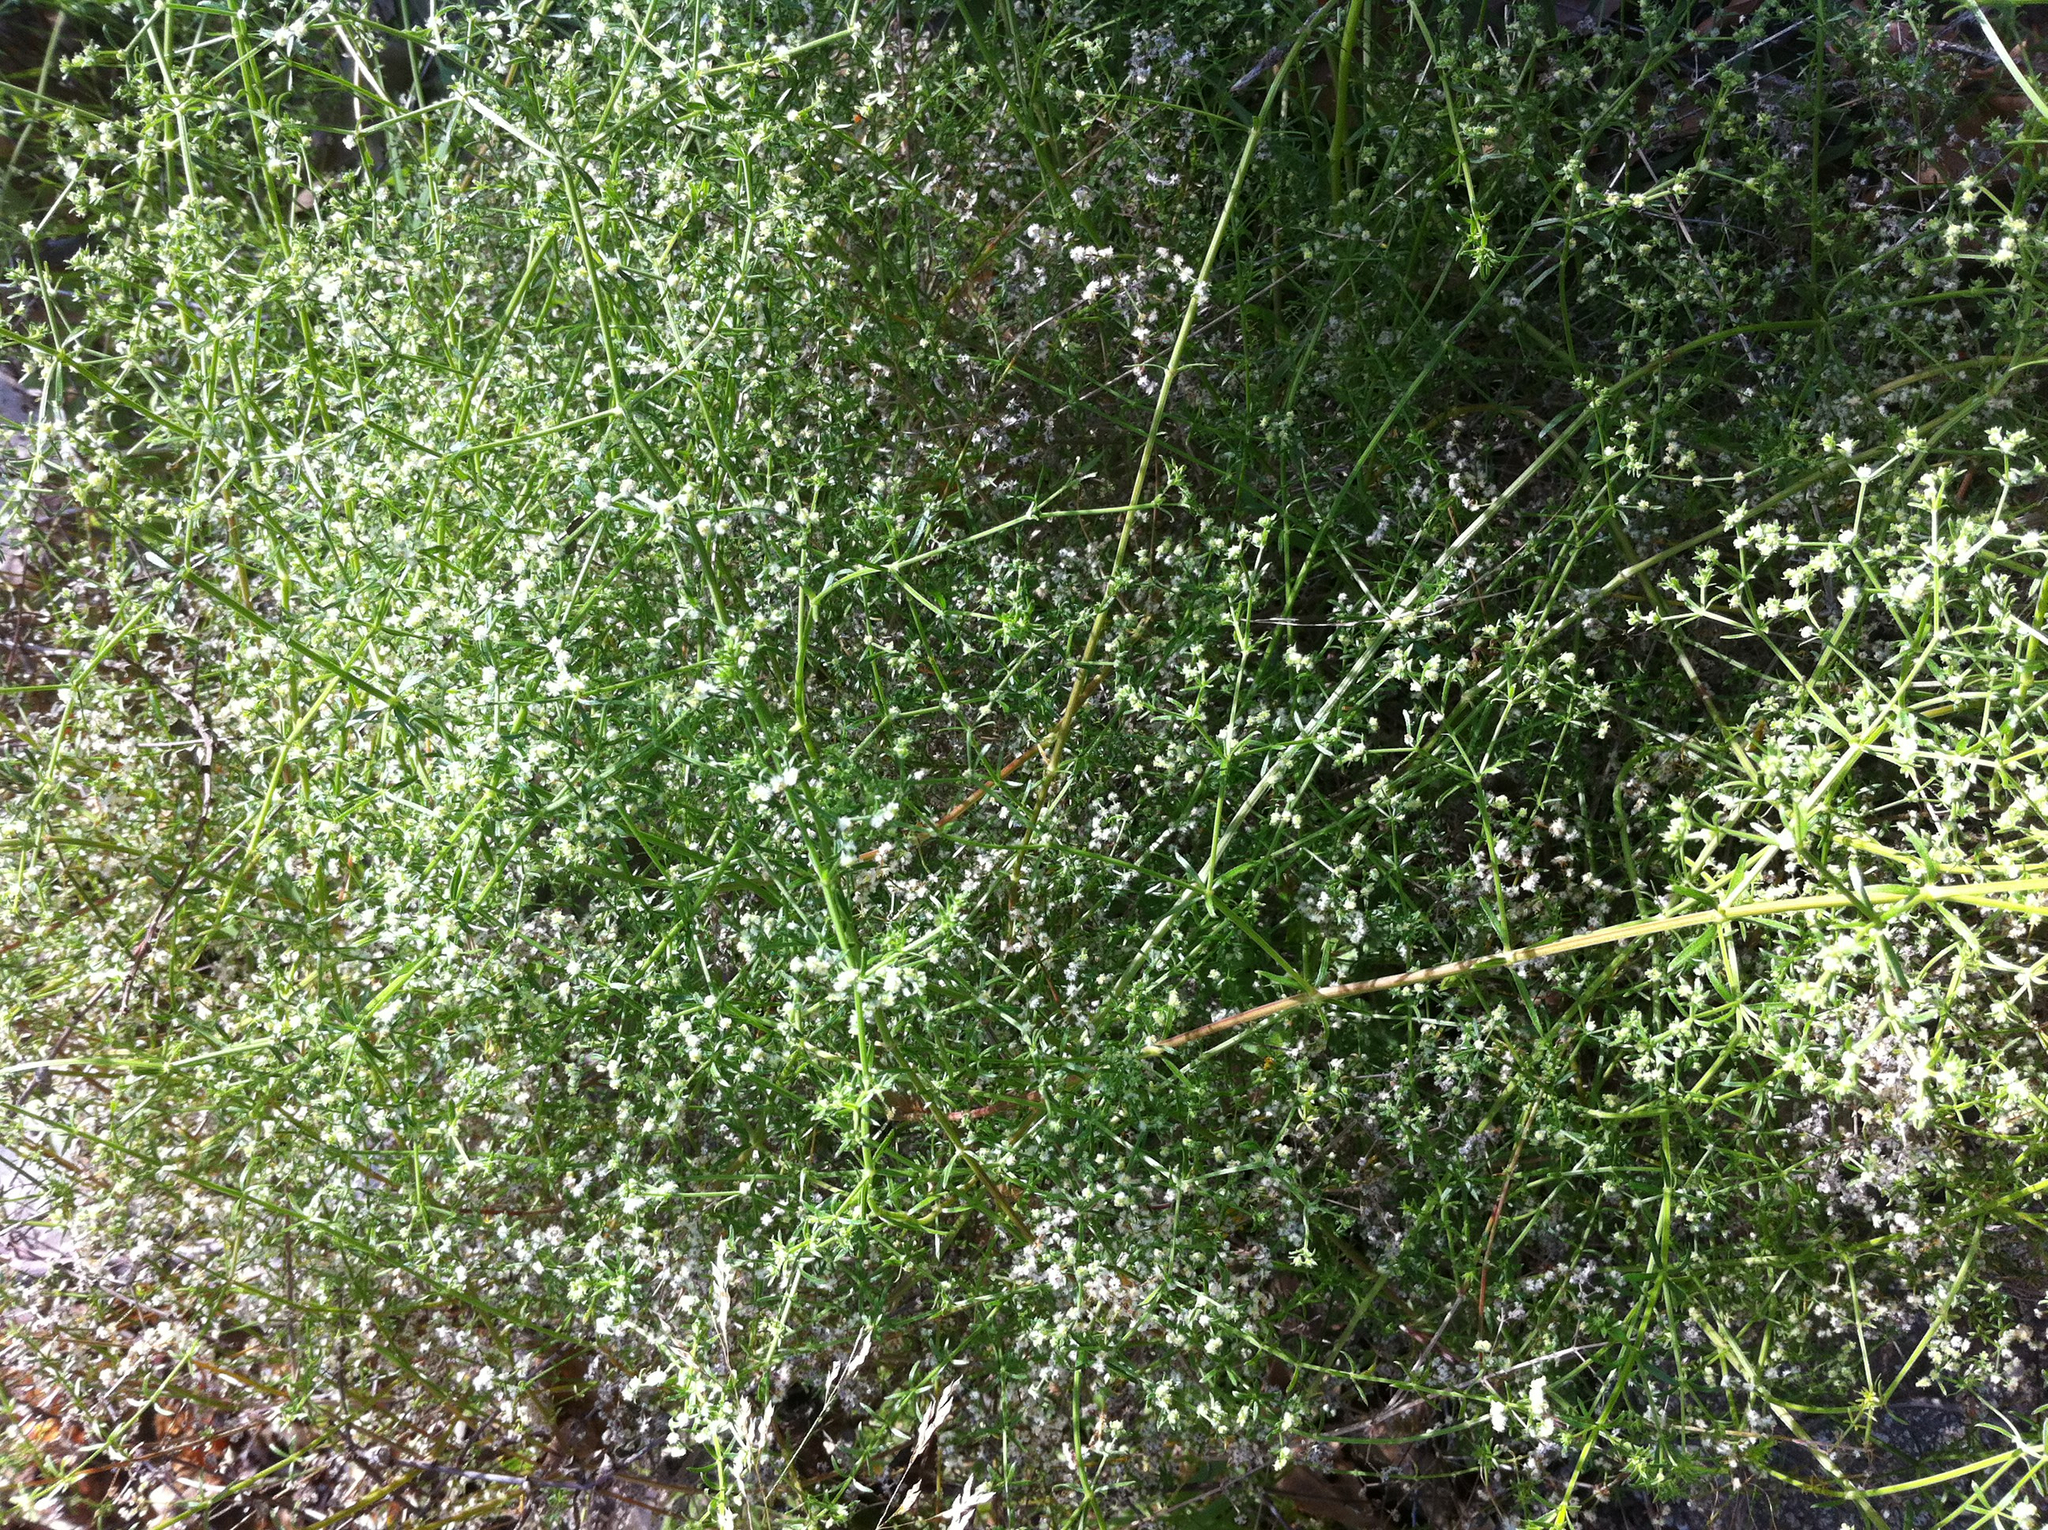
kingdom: Plantae
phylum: Tracheophyta
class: Magnoliopsida
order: Gentianales
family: Rubiaceae
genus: Galium
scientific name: Galium angustifolium
